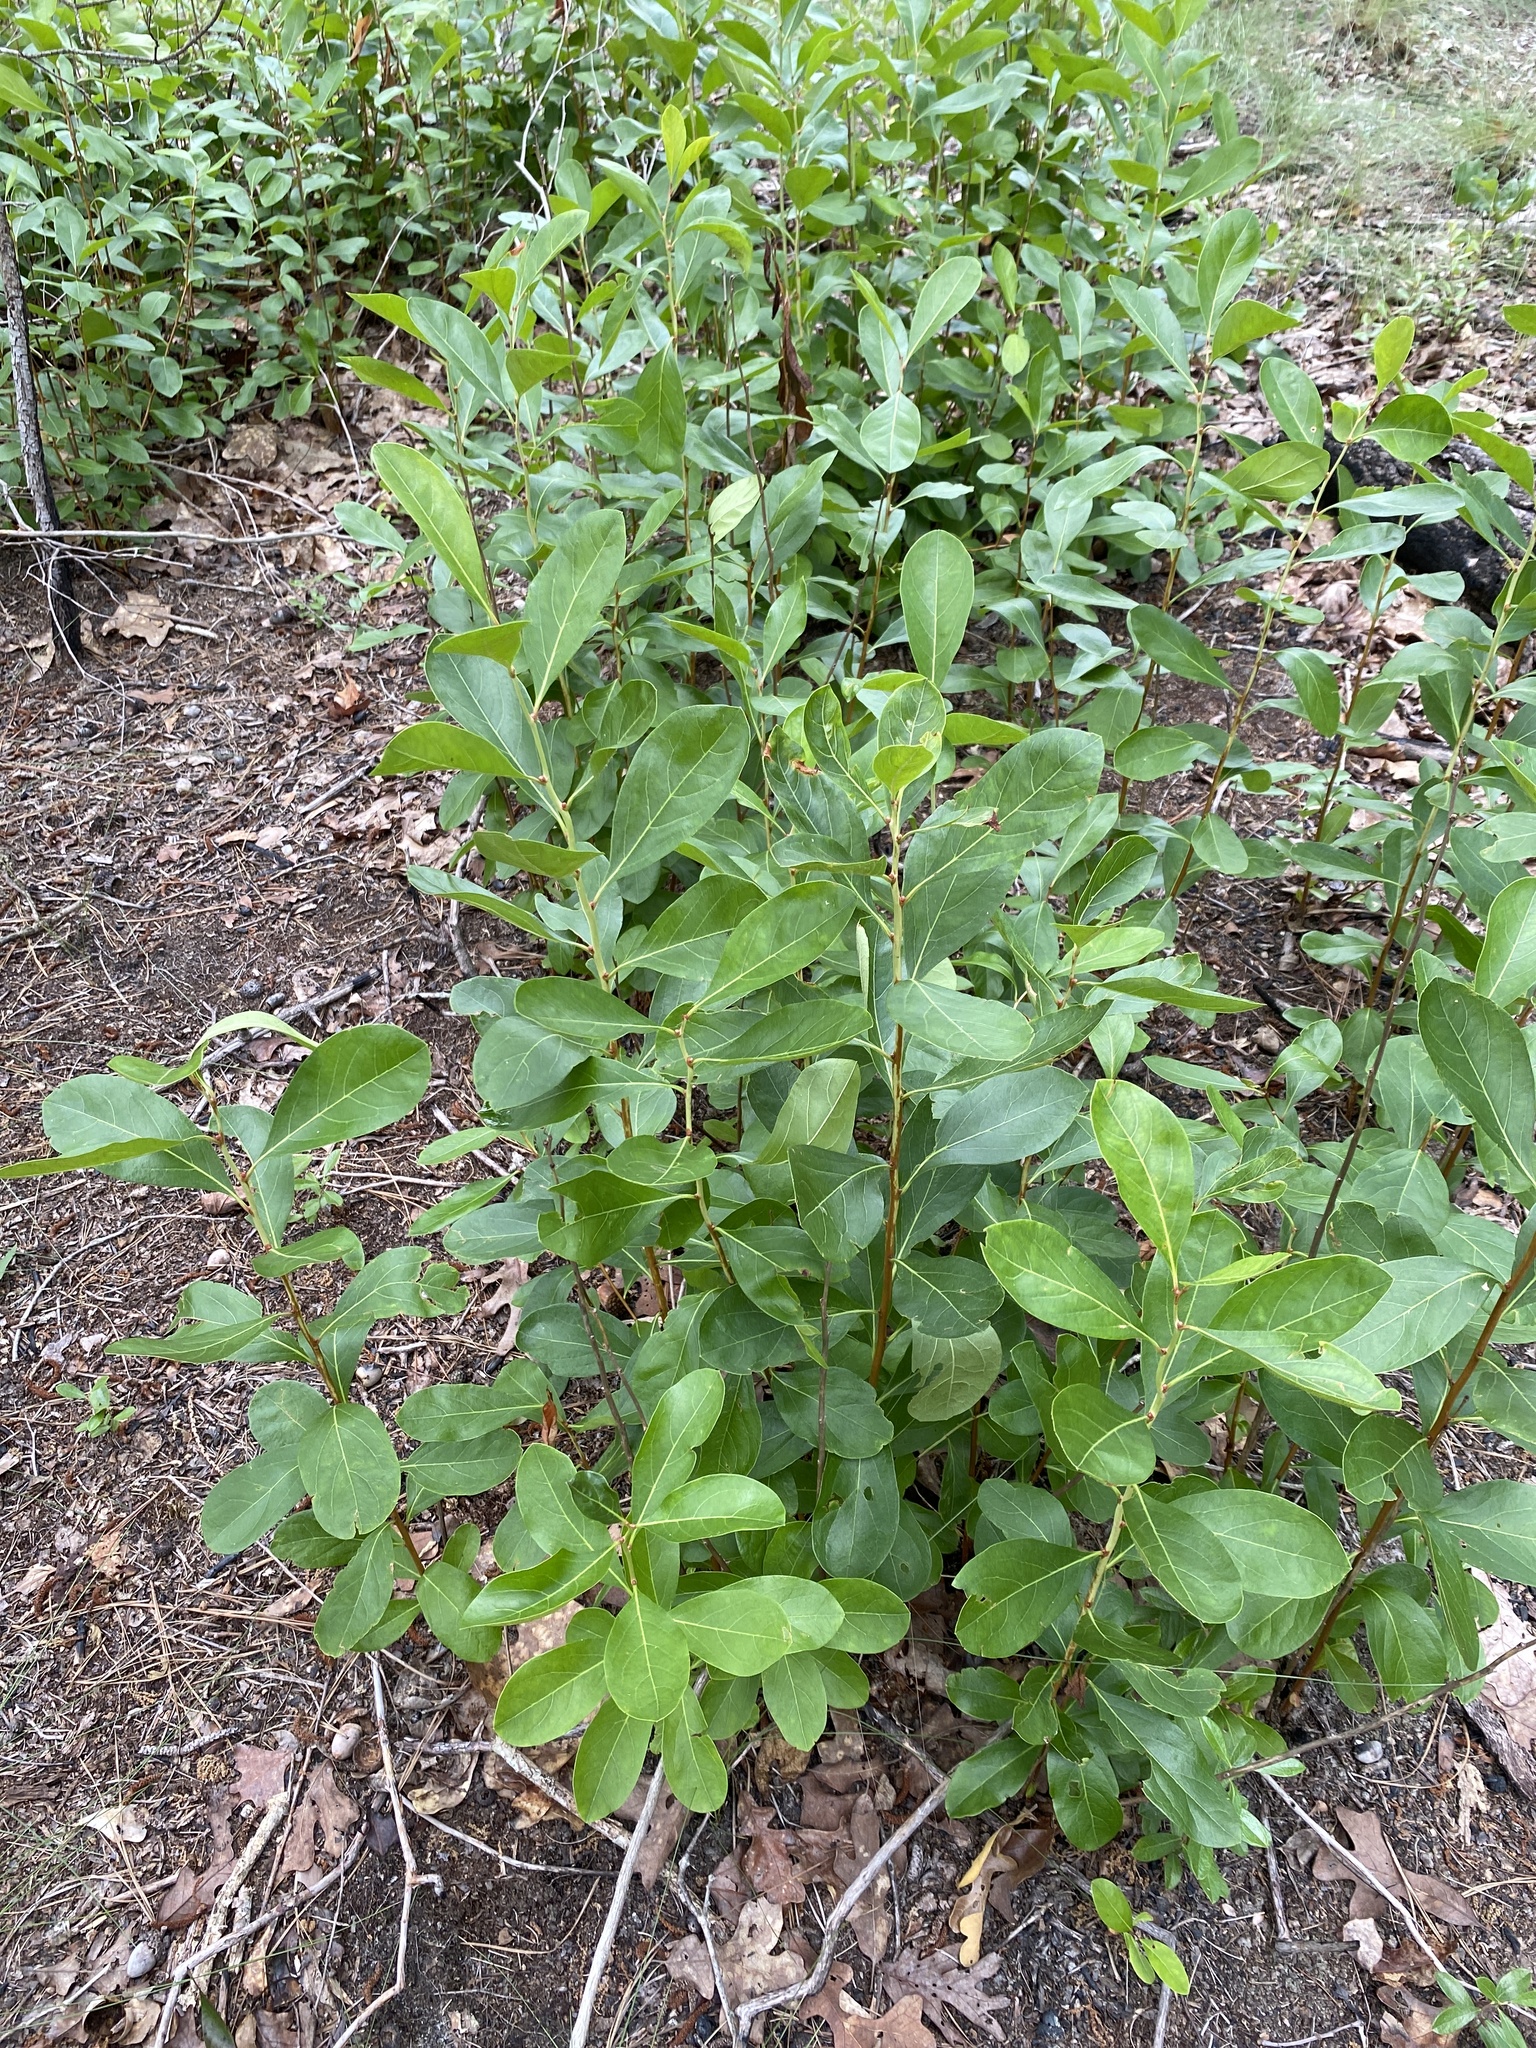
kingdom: Plantae
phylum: Tracheophyta
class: Magnoliopsida
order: Ericales
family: Ericaceae
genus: Lyonia
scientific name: Lyonia mariana
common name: Staggerbush
